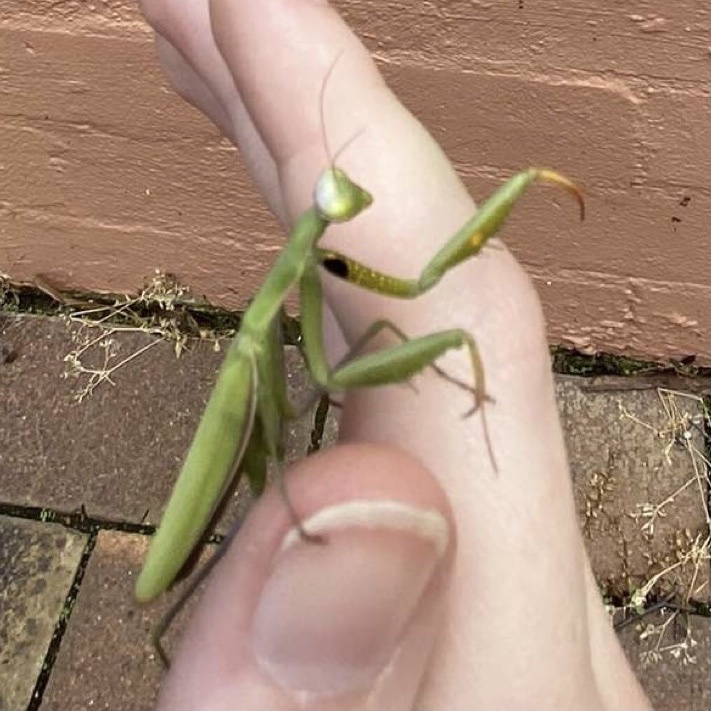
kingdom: Animalia
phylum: Arthropoda
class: Insecta
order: Mantodea
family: Mantidae
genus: Mantis
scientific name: Mantis octospilota
